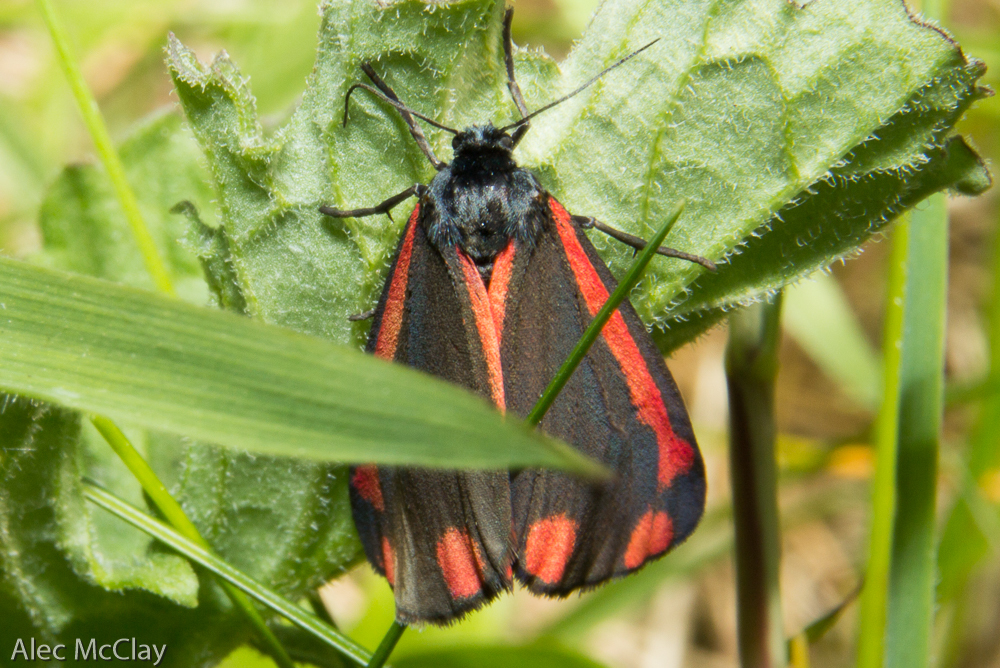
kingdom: Animalia
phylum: Arthropoda
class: Insecta
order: Lepidoptera
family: Erebidae
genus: Tyria
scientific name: Tyria jacobaeae
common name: Cinnabar
